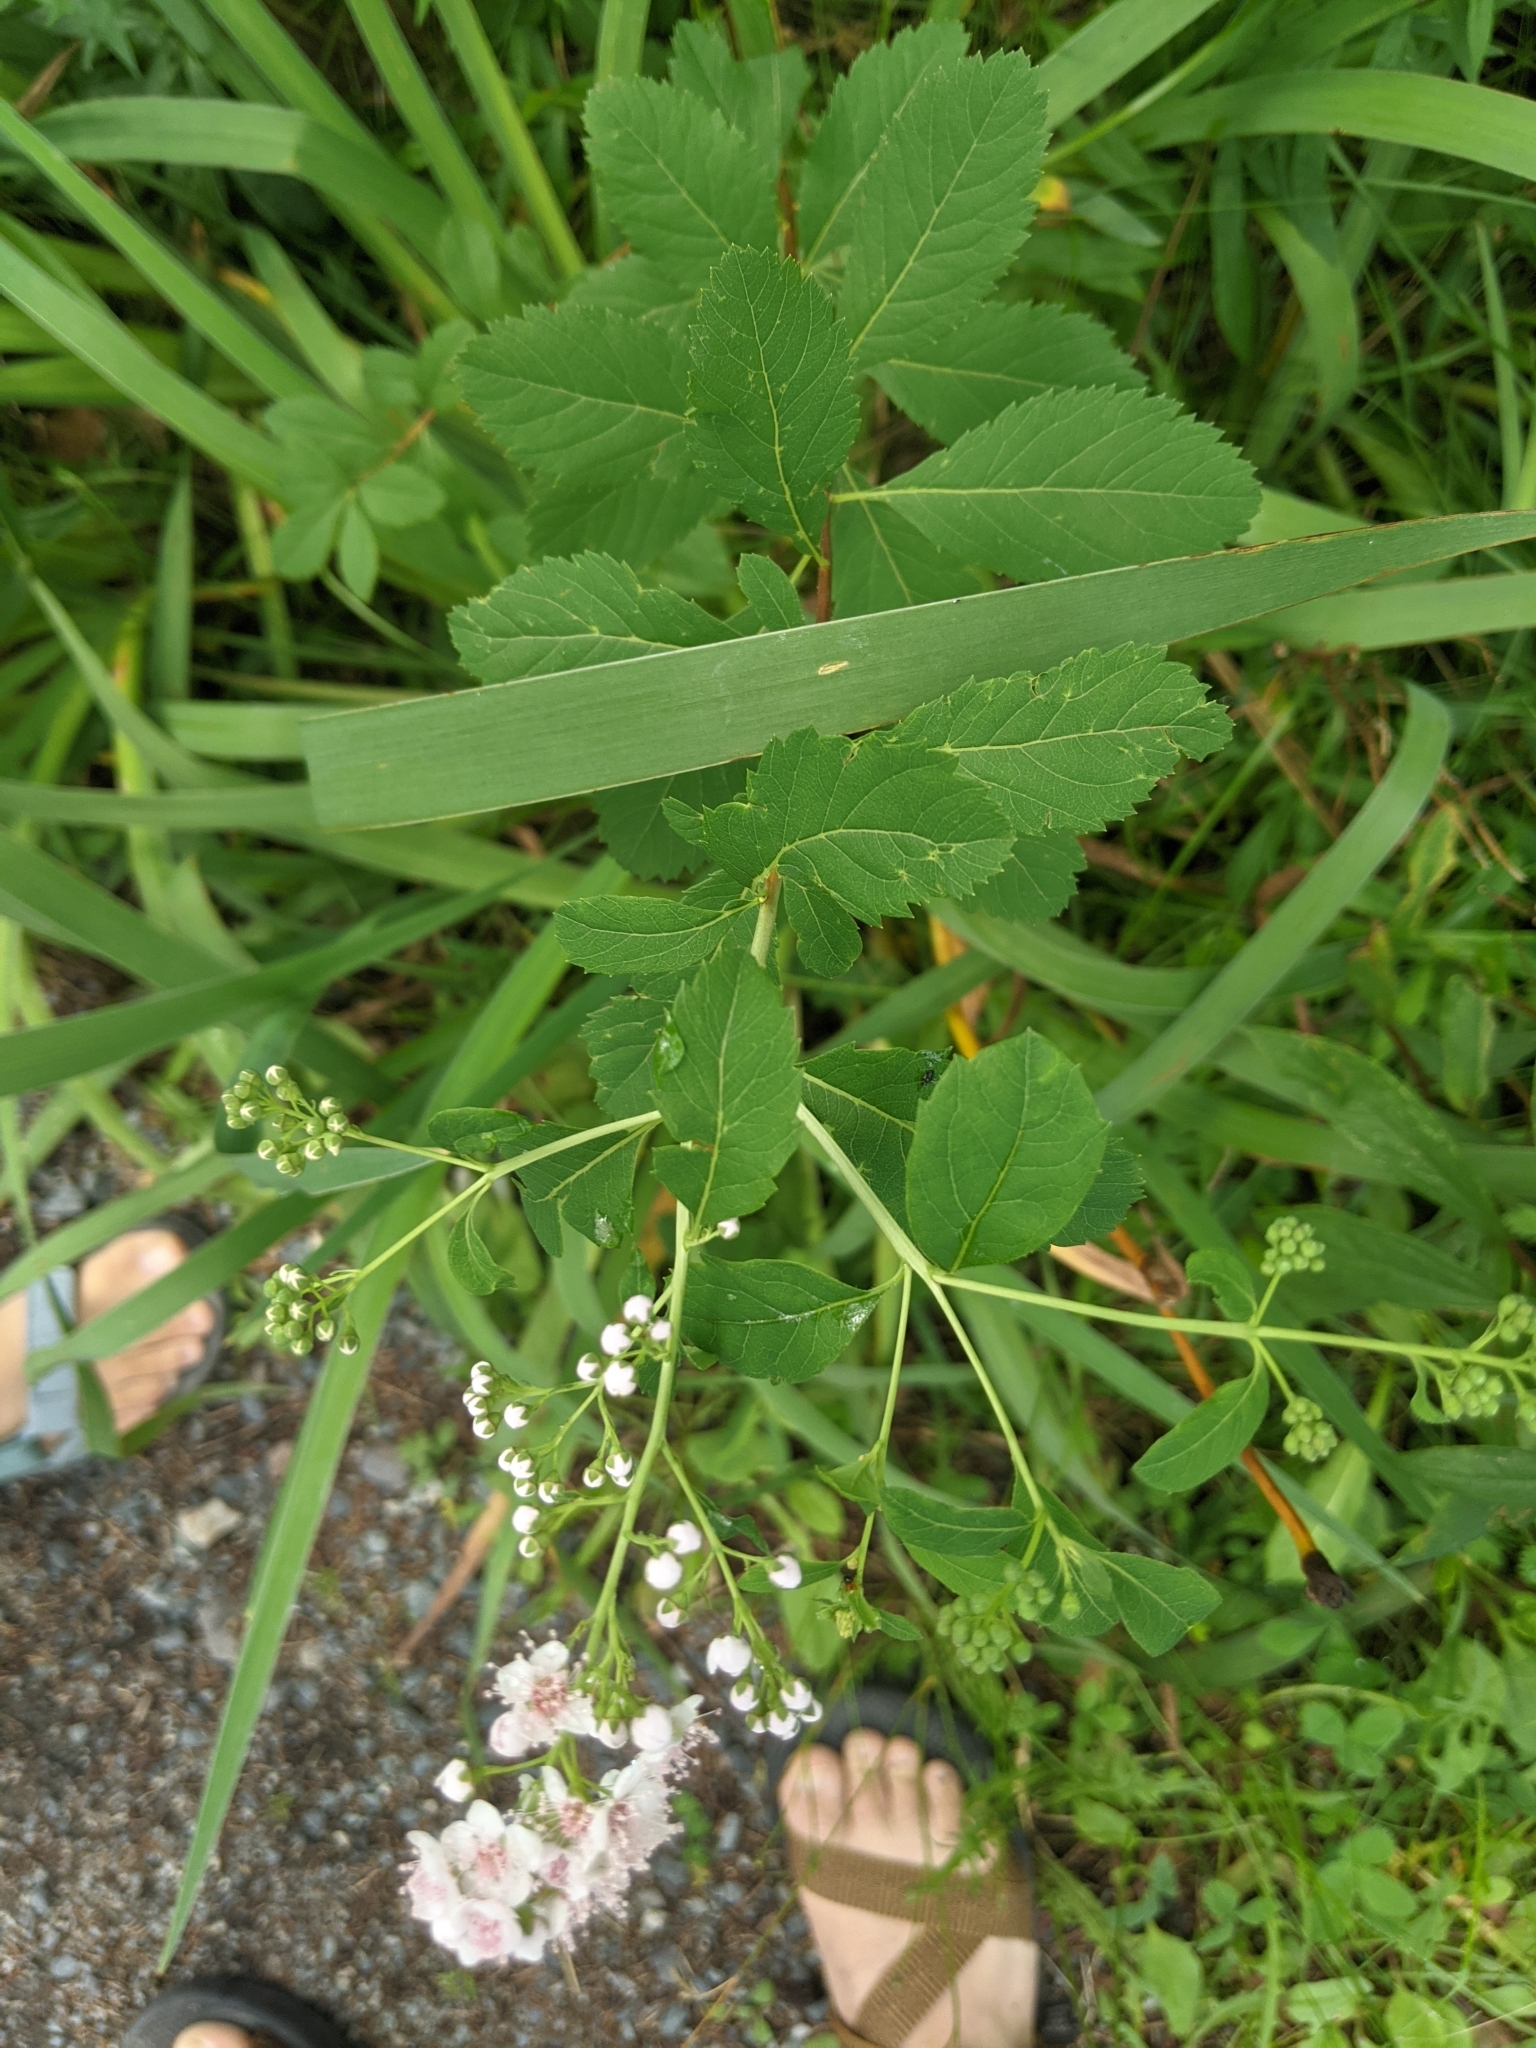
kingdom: Plantae
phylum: Tracheophyta
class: Magnoliopsida
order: Rosales
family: Rosaceae
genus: Spiraea
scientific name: Spiraea alba
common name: Pale bridewort
